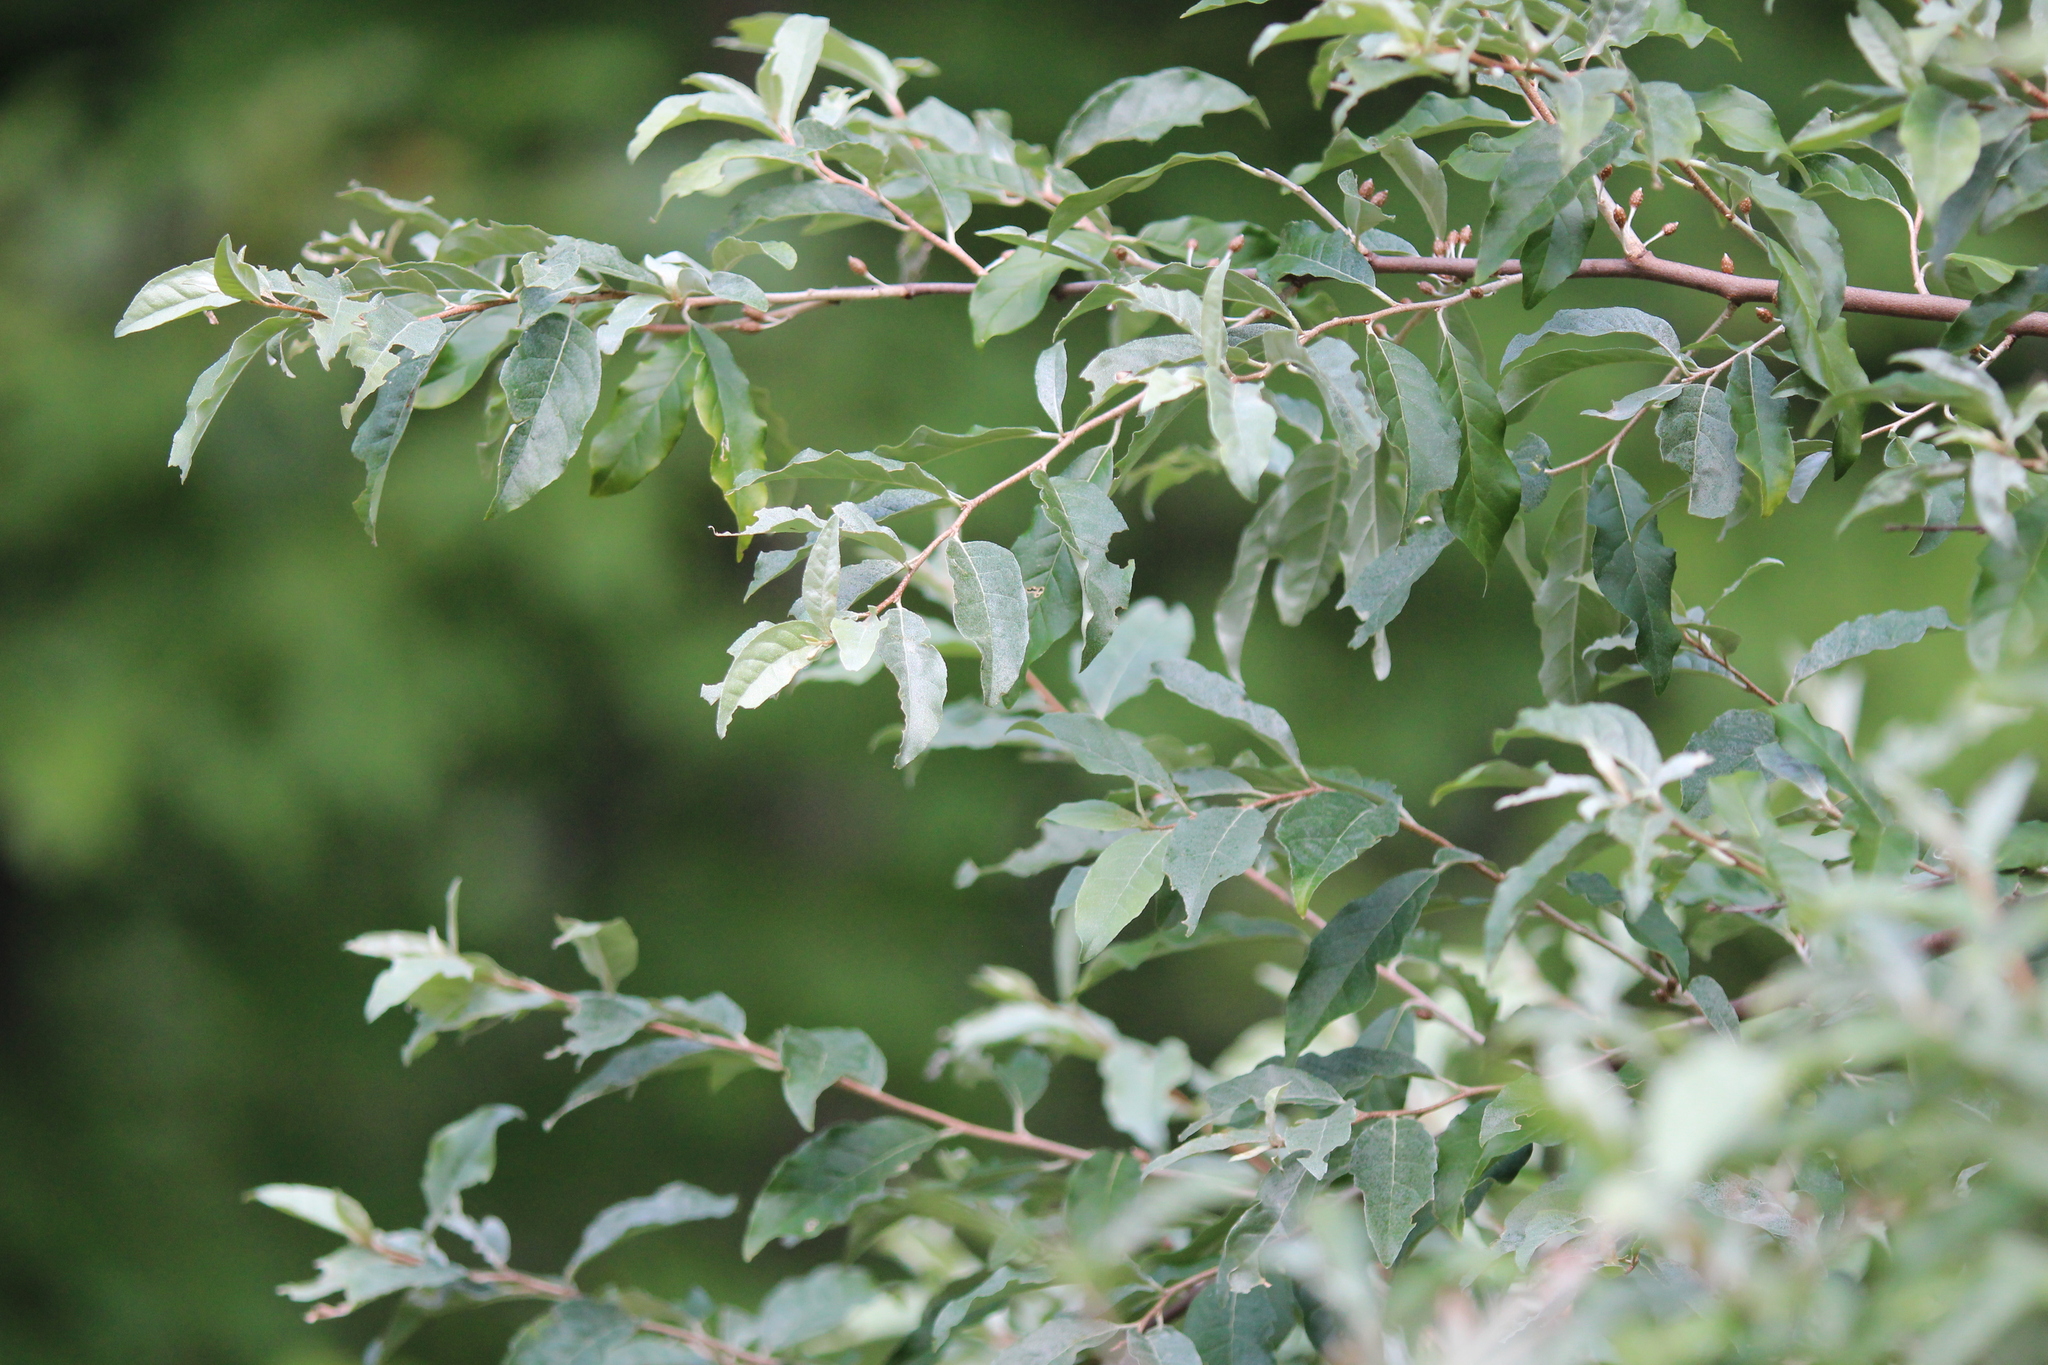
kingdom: Plantae
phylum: Tracheophyta
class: Magnoliopsida
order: Rosales
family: Elaeagnaceae
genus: Elaeagnus
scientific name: Elaeagnus umbellata
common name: Autumn olive
